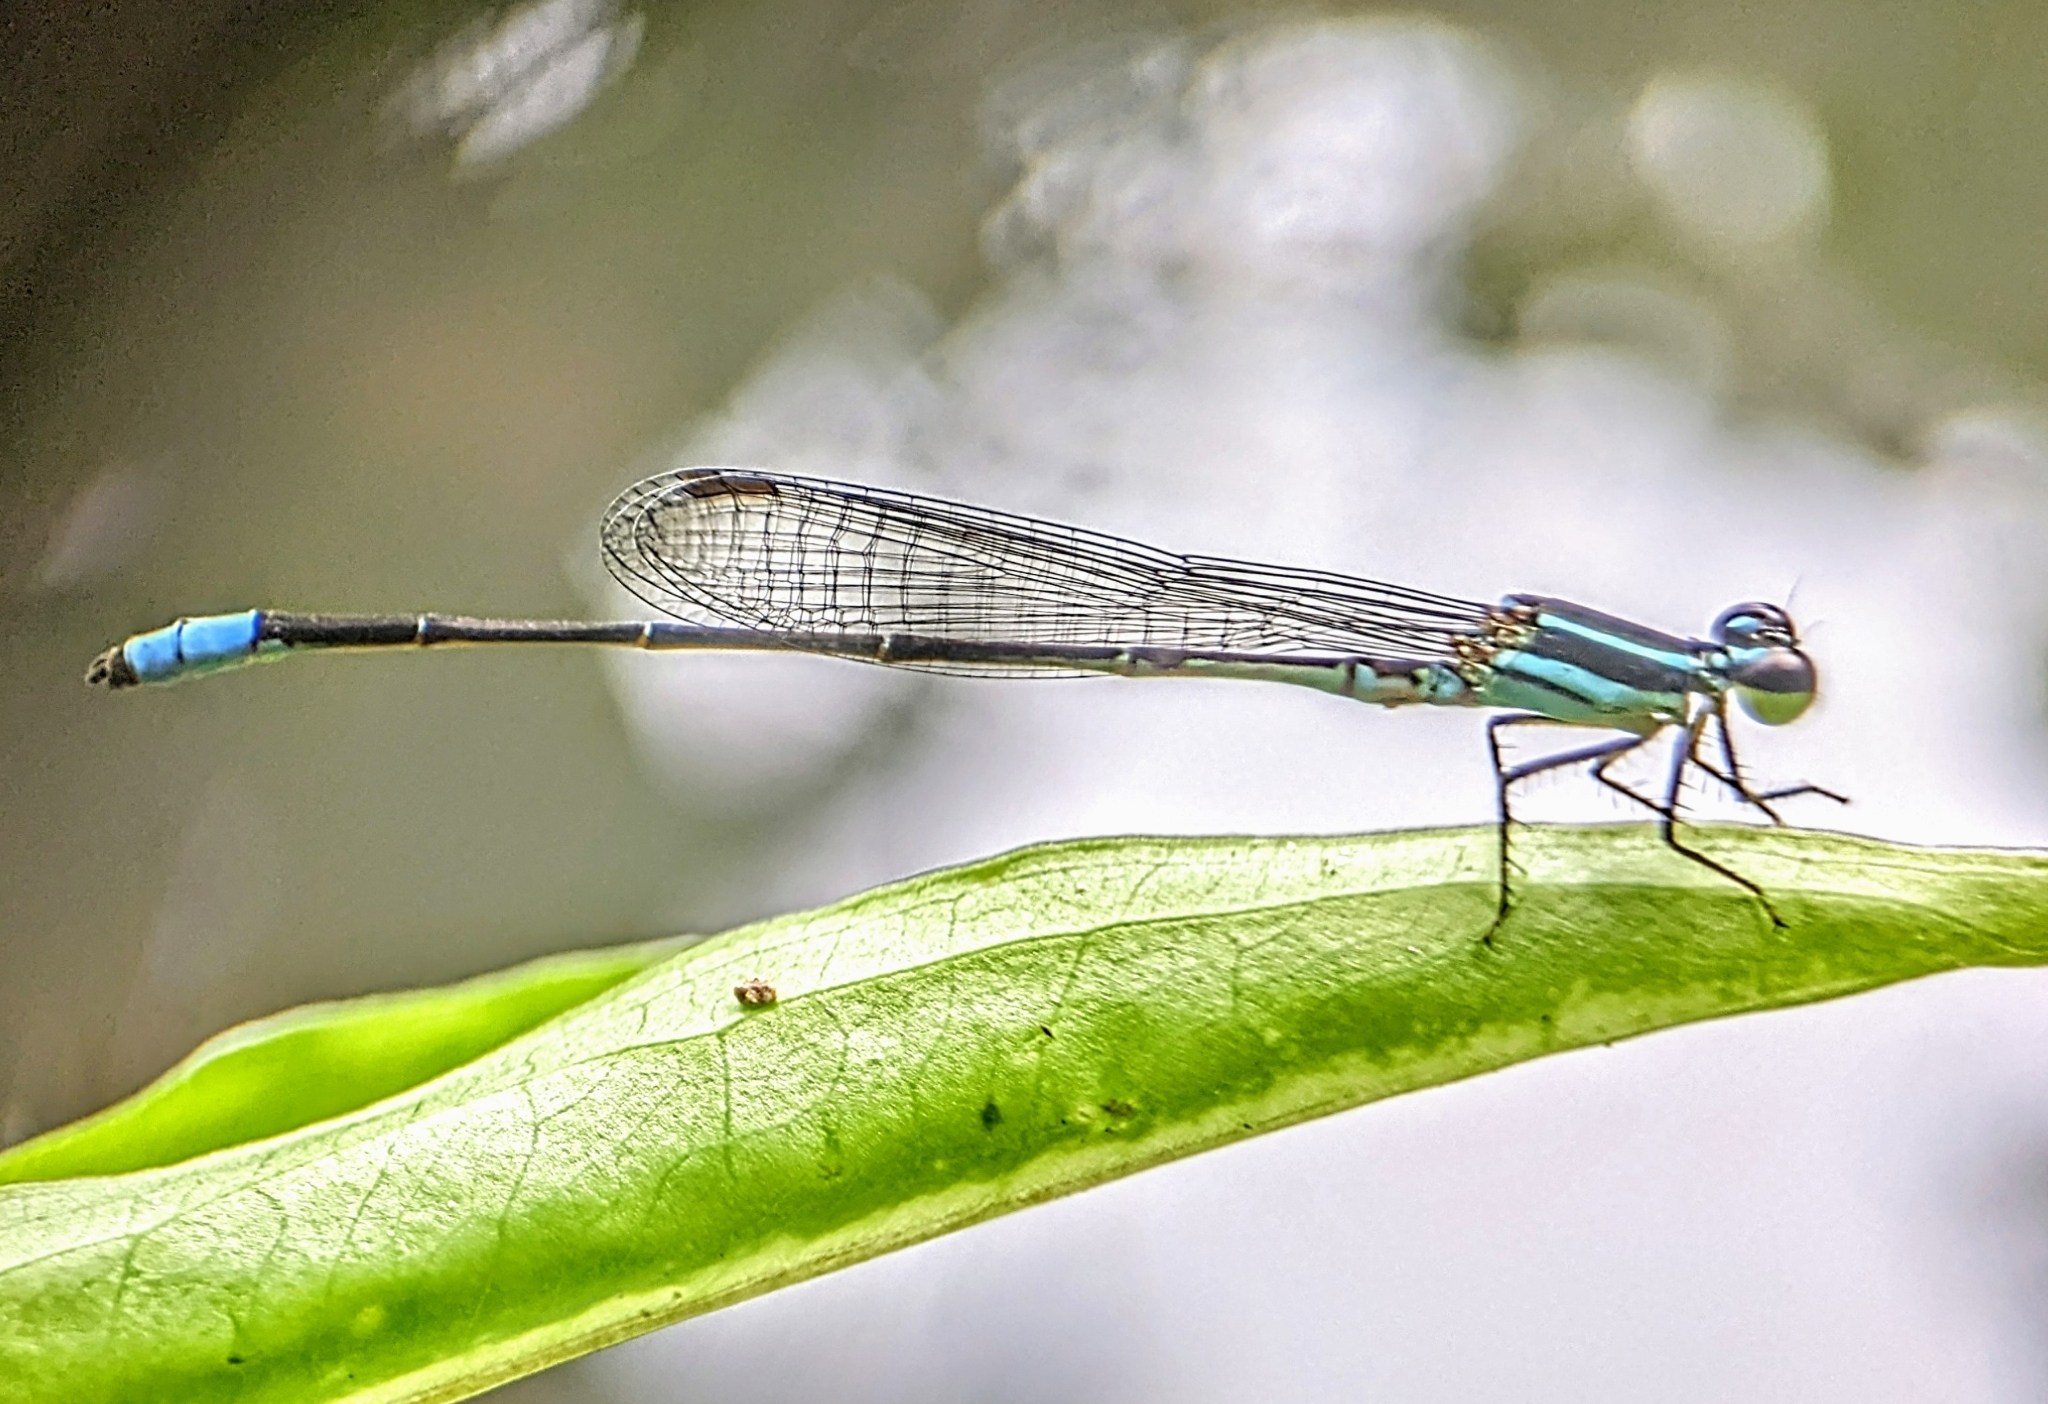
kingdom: Animalia
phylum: Arthropoda
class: Insecta
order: Odonata
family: Coenagrionidae
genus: Argiocnemis
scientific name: Argiocnemis rubescens
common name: Red-tipped shadefly
